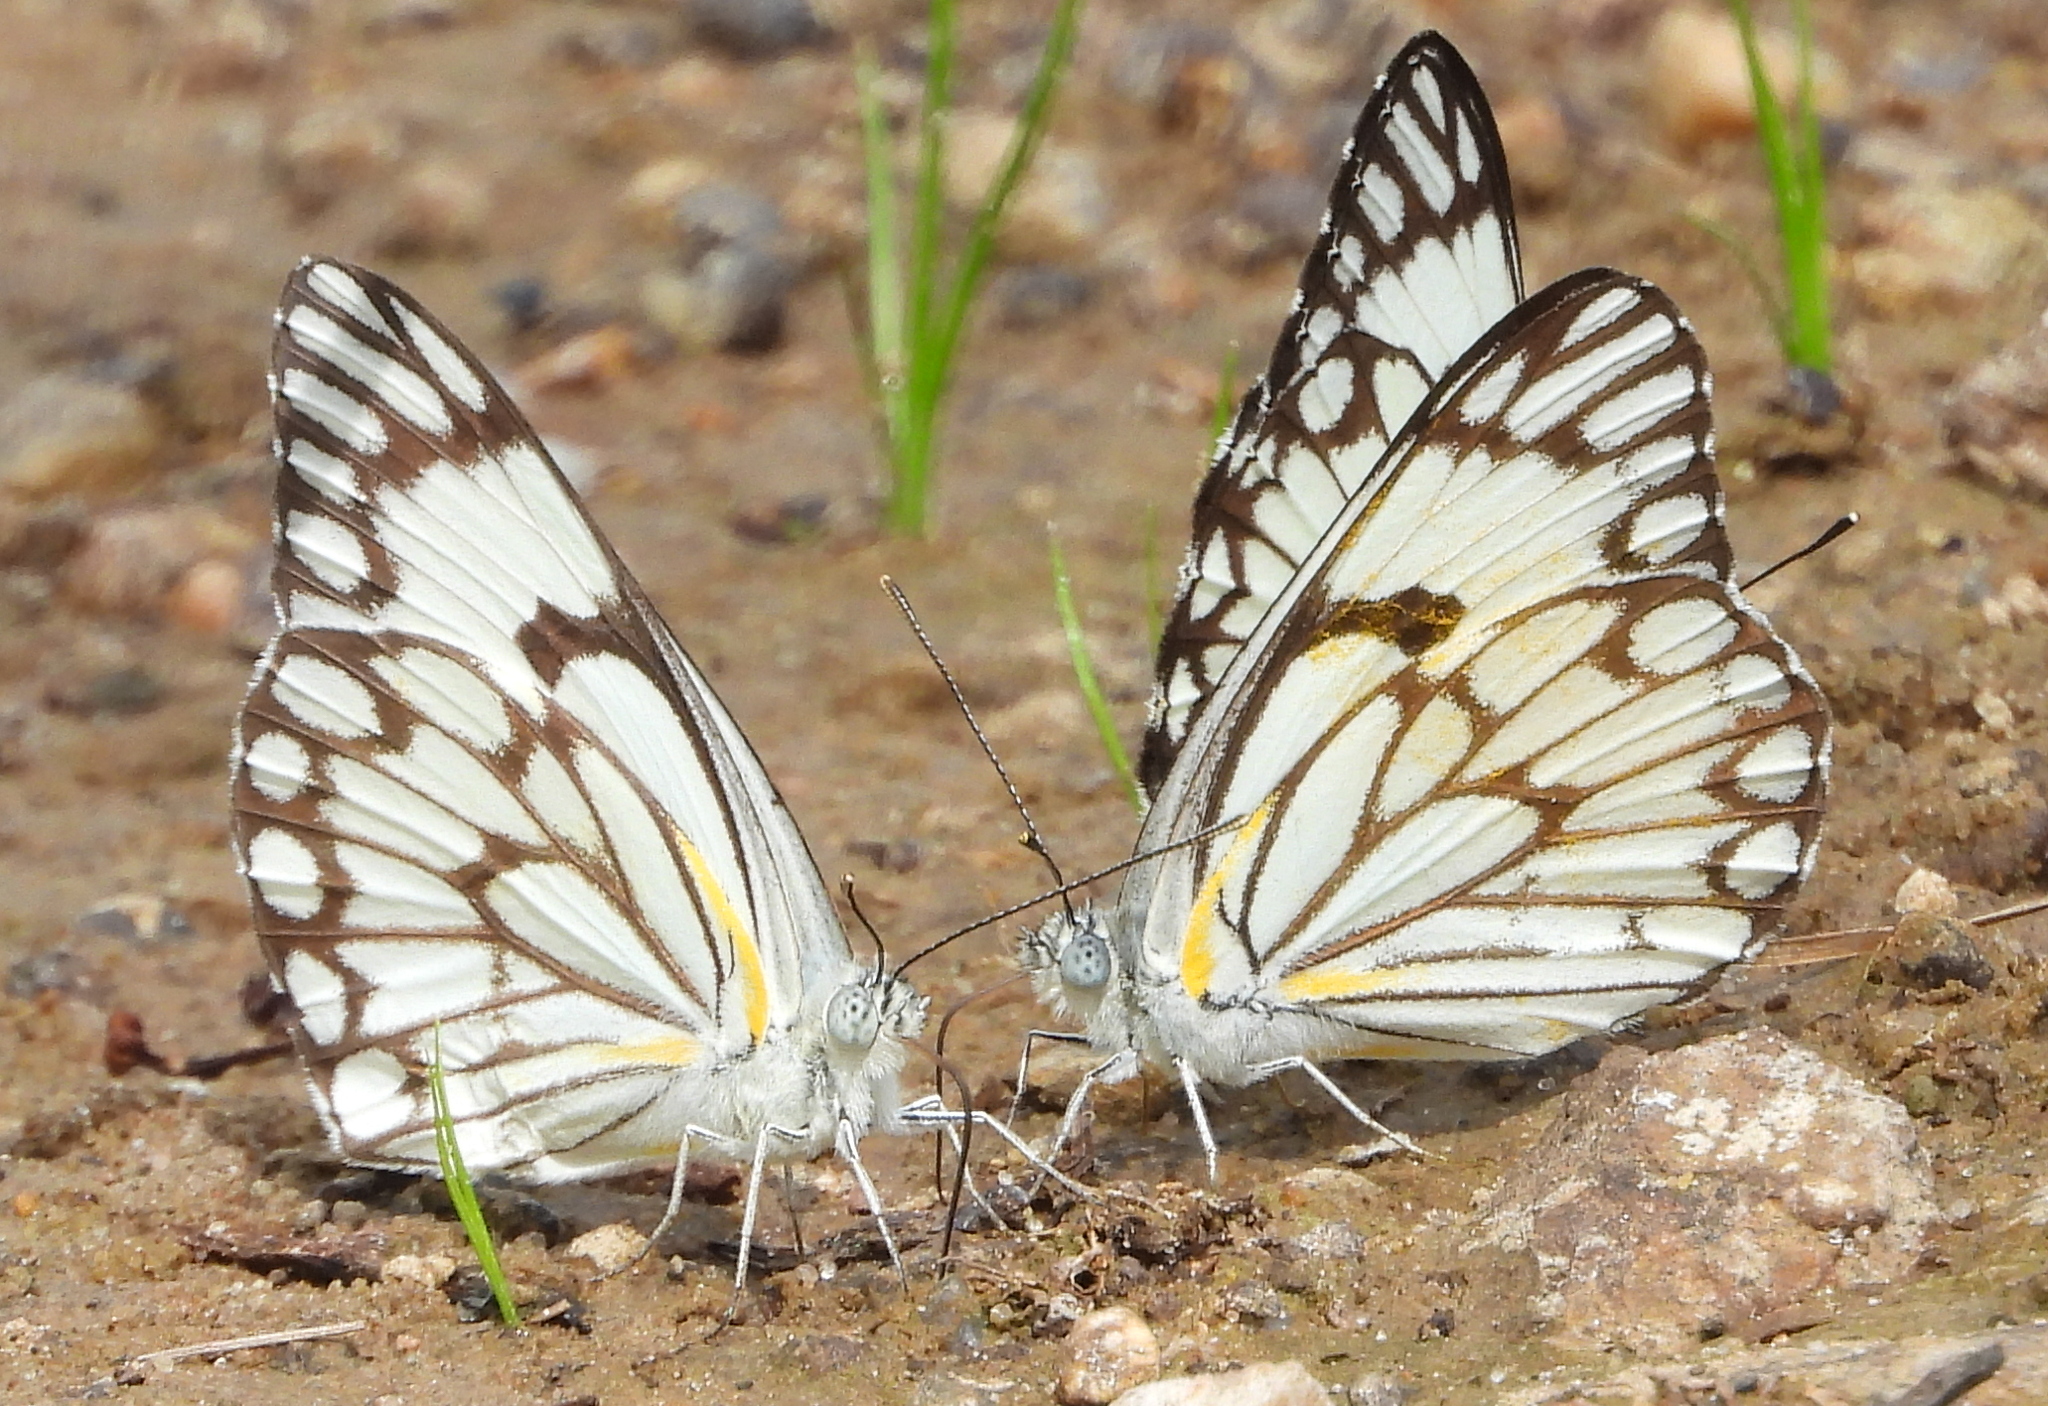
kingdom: Animalia
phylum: Arthropoda
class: Insecta
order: Lepidoptera
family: Pieridae
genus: Belenois
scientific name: Belenois aurota
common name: Brown-veined white
